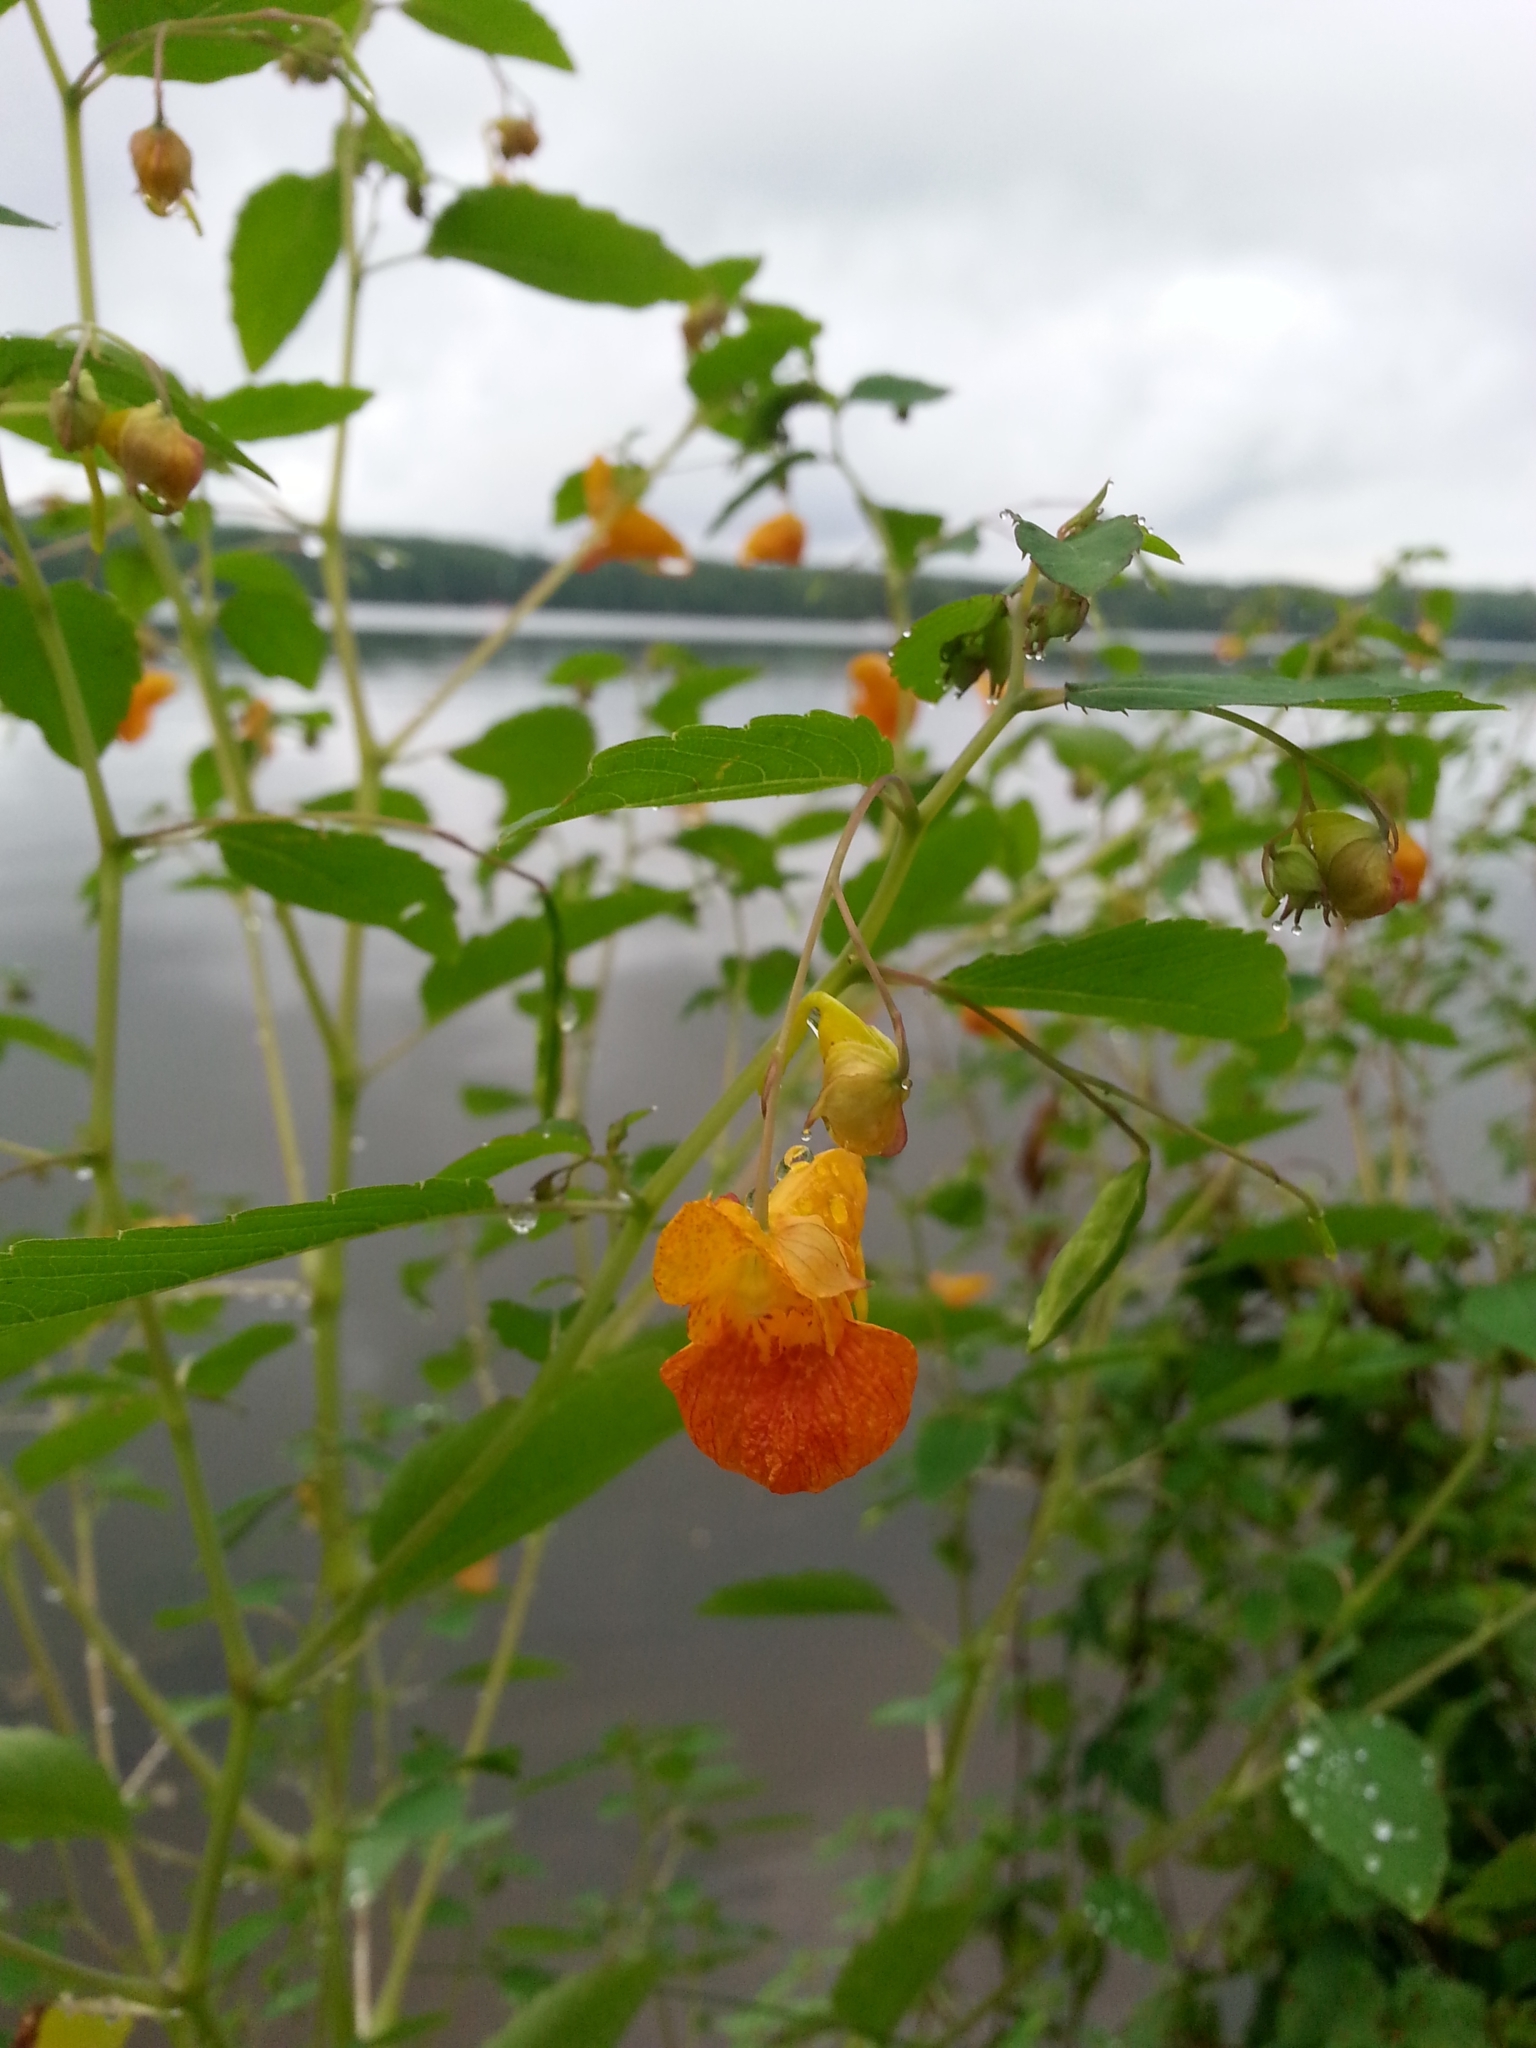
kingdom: Plantae
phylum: Tracheophyta
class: Magnoliopsida
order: Ericales
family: Balsaminaceae
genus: Impatiens
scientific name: Impatiens capensis
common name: Orange balsam
